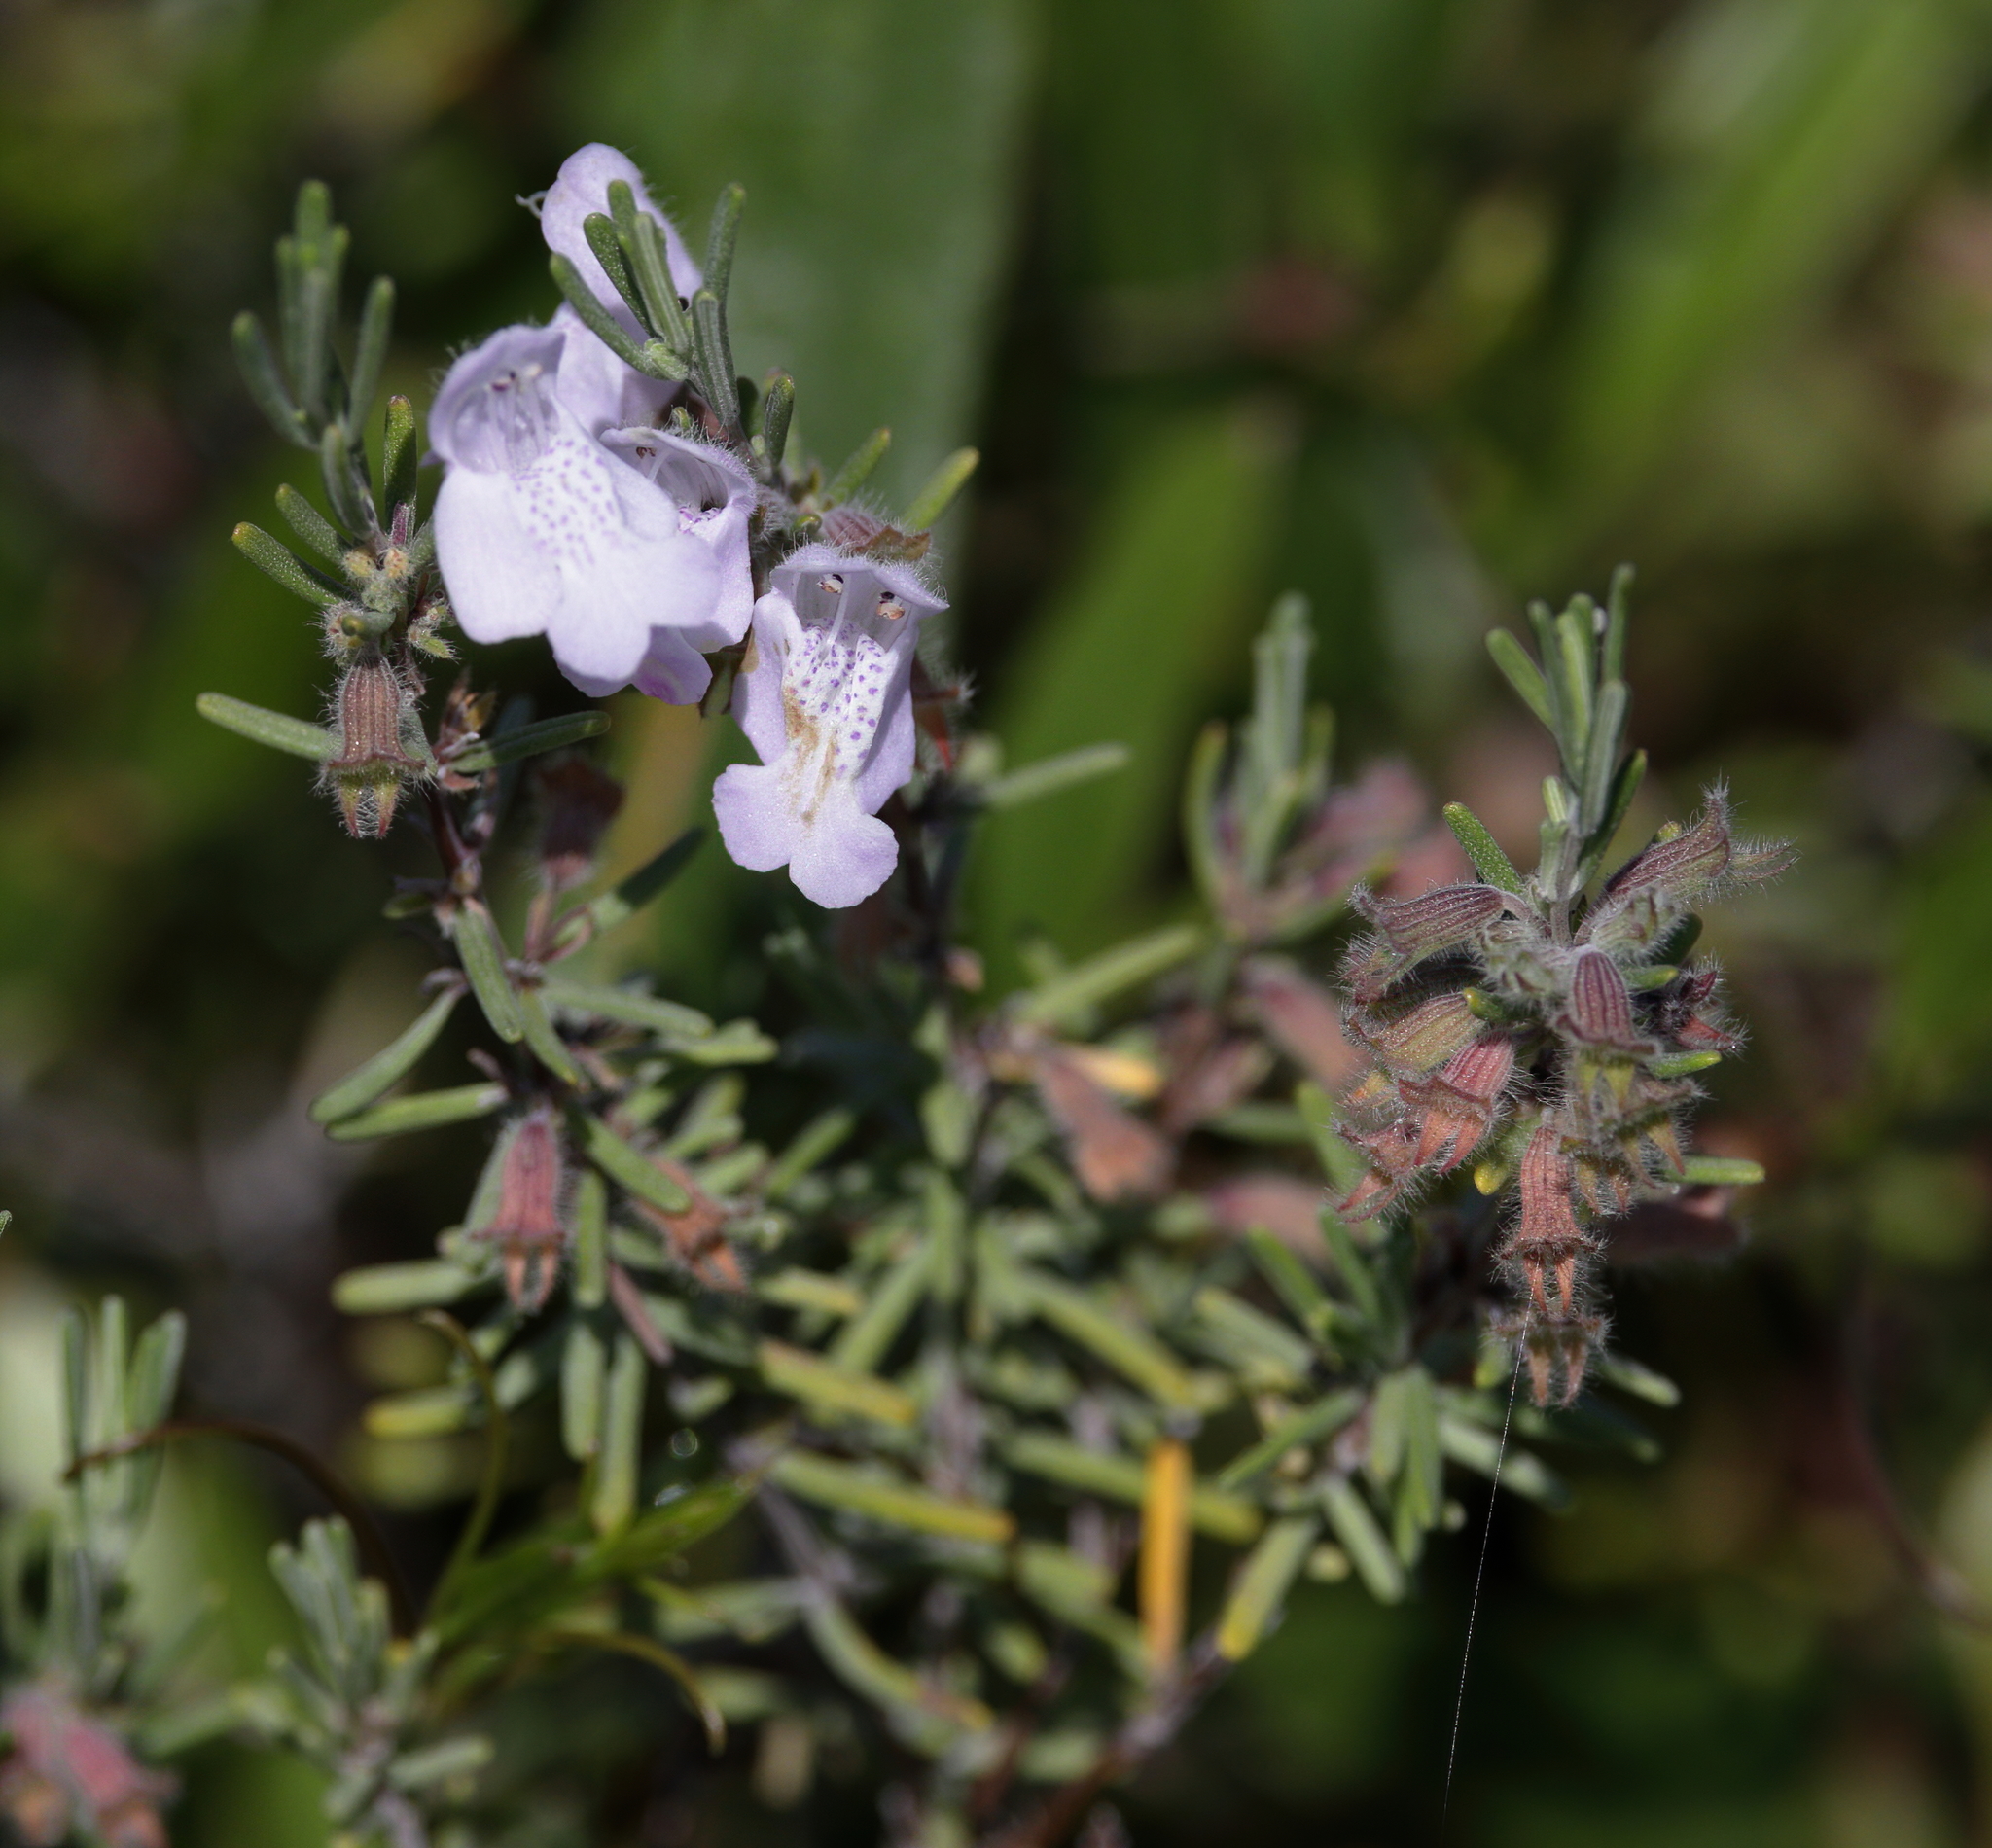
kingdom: Plantae
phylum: Tracheophyta
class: Magnoliopsida
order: Lamiales
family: Lamiaceae
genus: Conradina
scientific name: Conradina canescens
